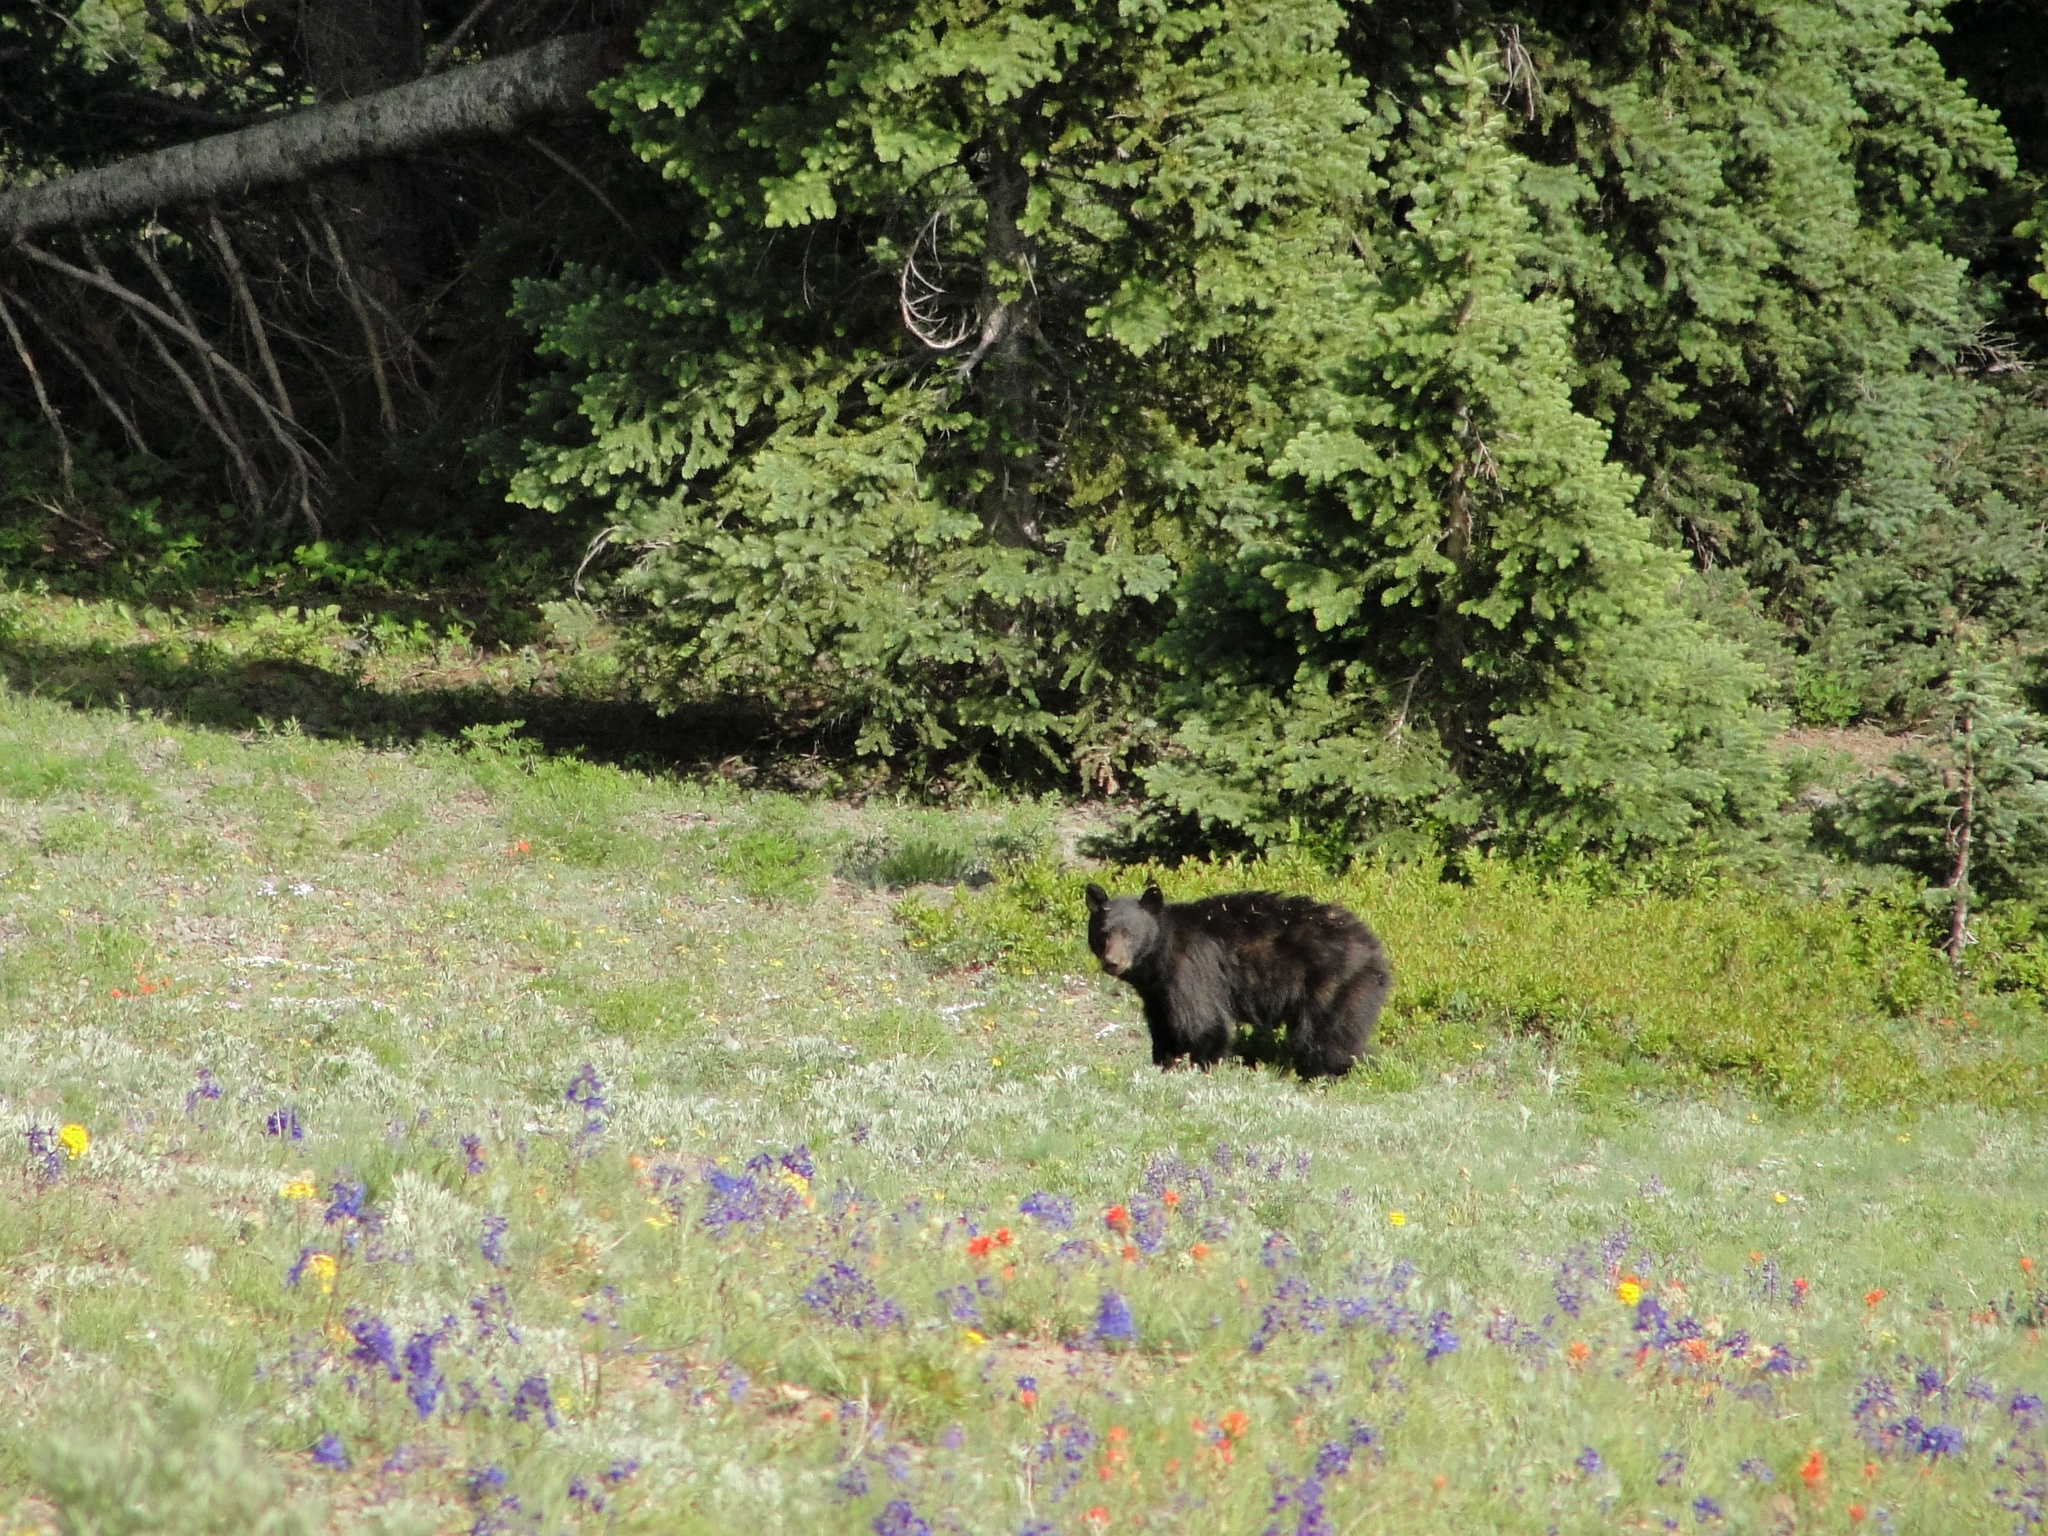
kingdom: Animalia
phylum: Chordata
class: Mammalia
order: Carnivora
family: Ursidae
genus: Ursus
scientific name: Ursus americanus
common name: American black bear
